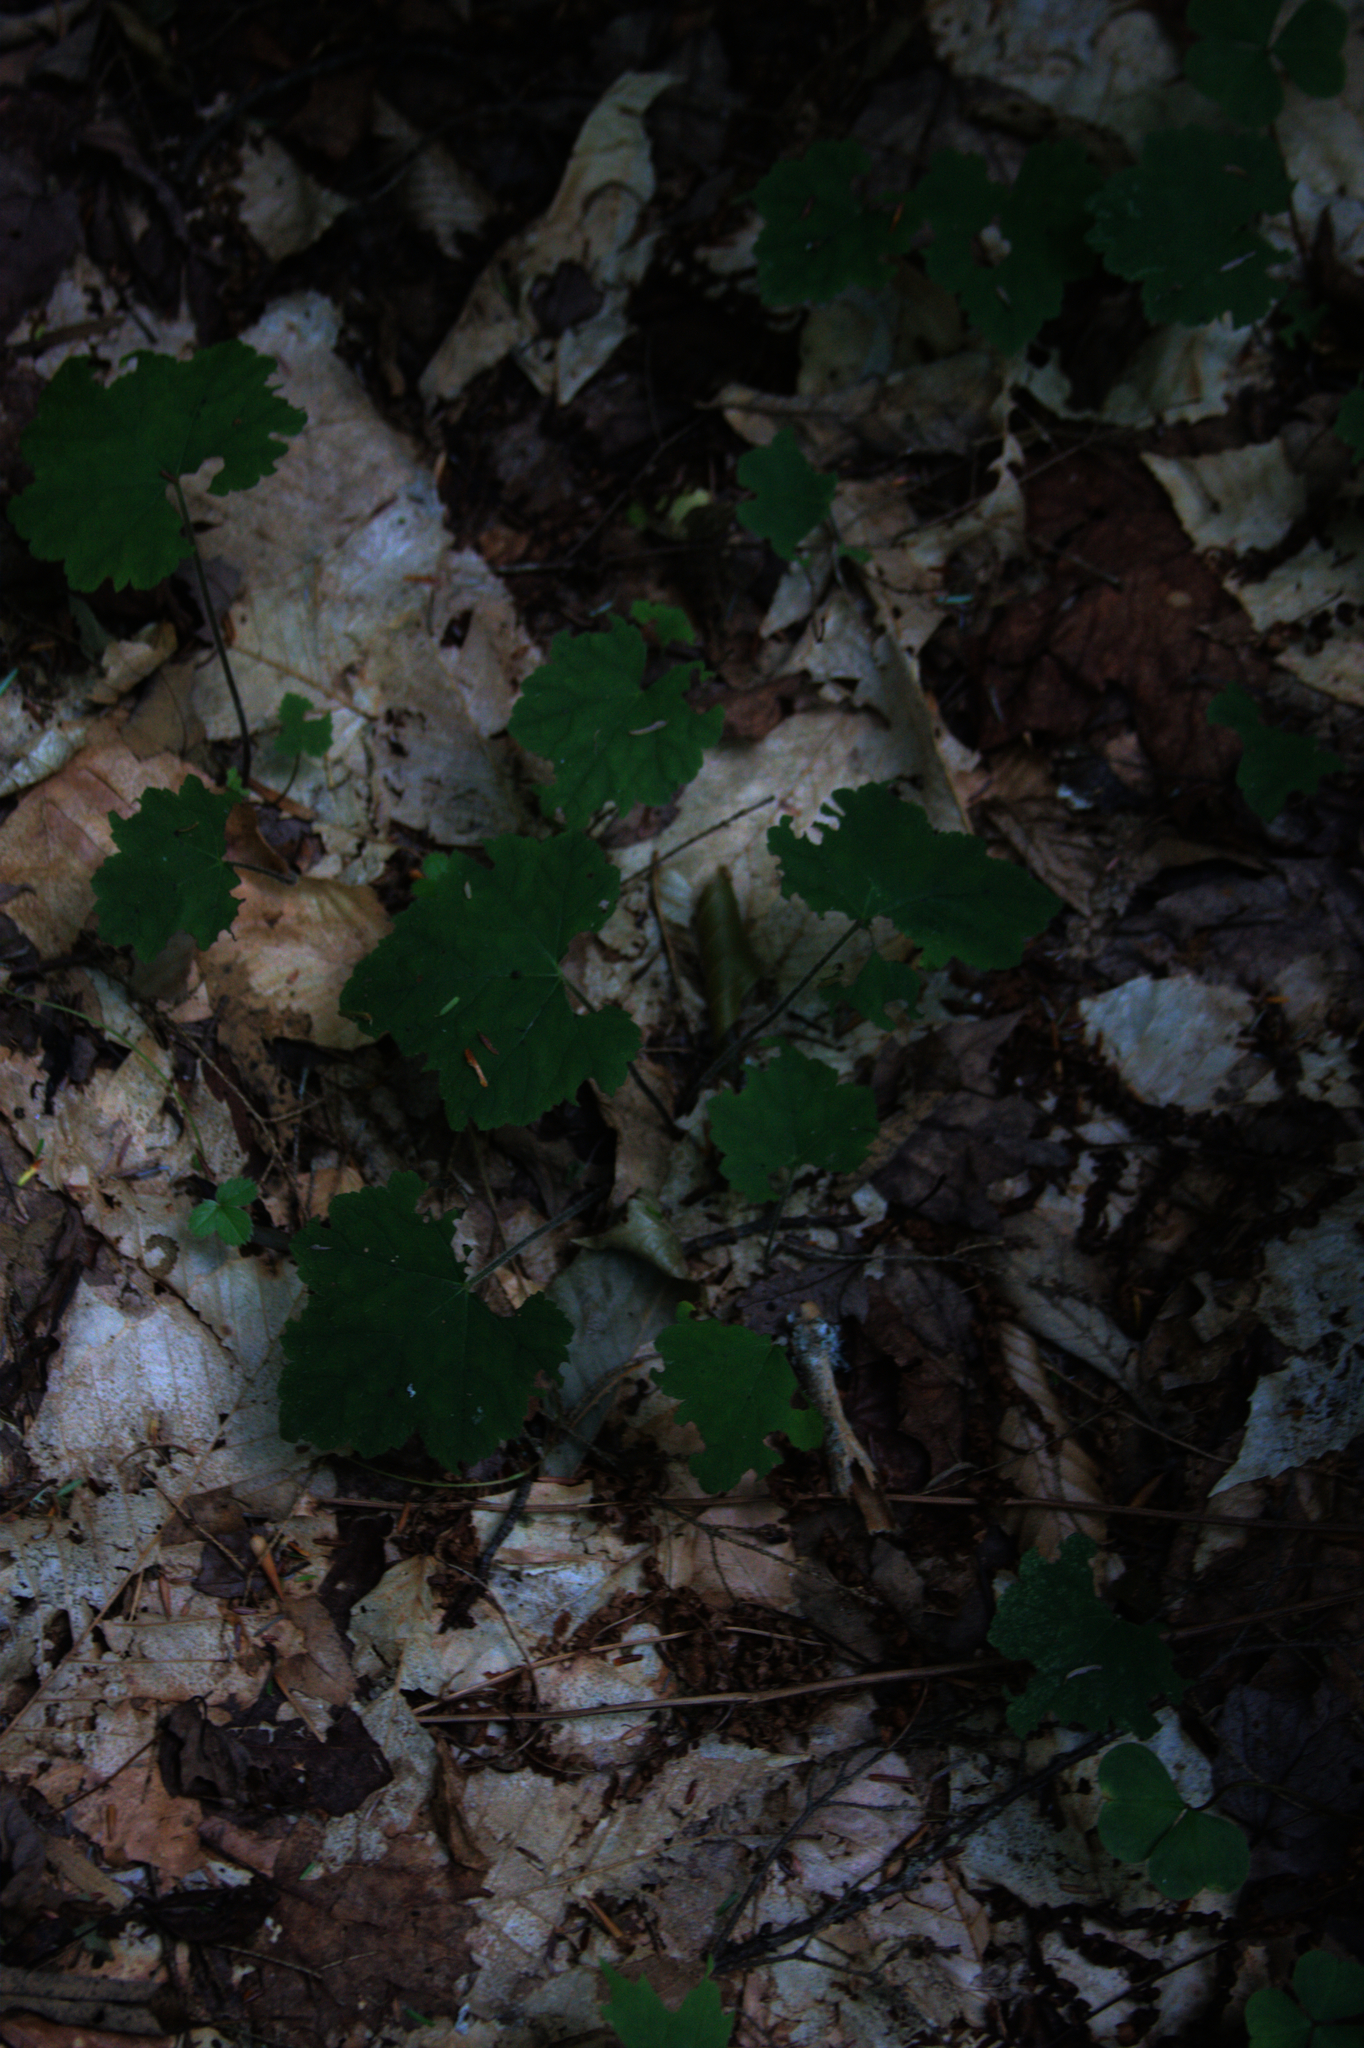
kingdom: Plantae
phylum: Tracheophyta
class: Magnoliopsida
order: Saxifragales
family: Saxifragaceae
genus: Tiarella
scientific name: Tiarella stolonifera
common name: Stoloniferous foamflower
